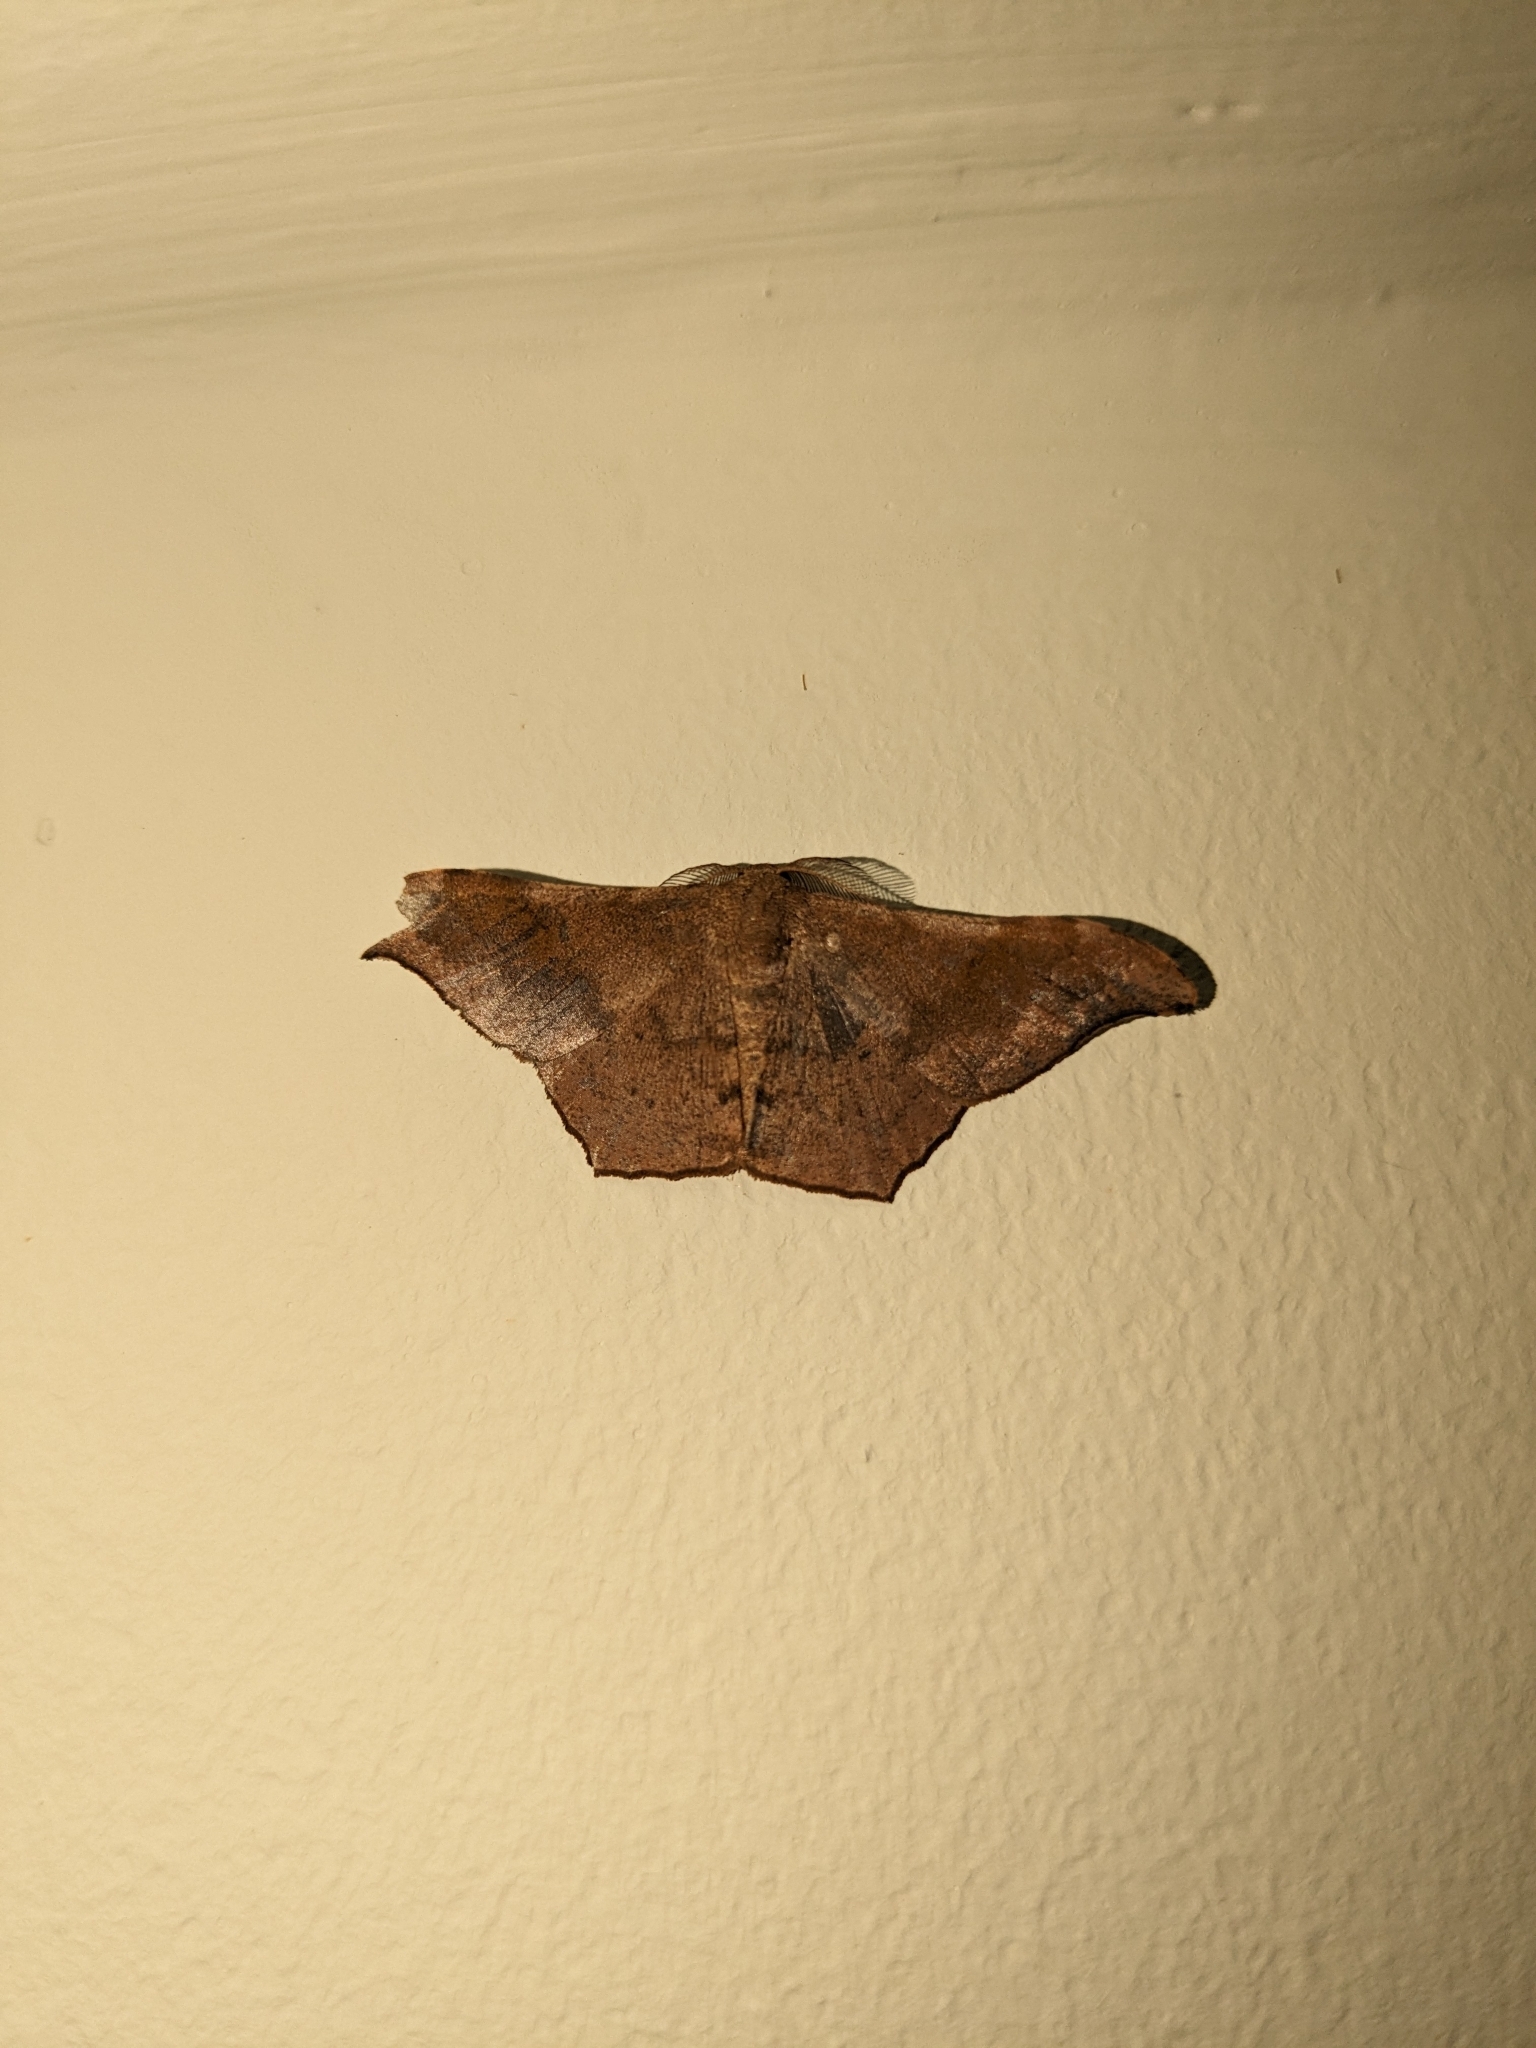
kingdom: Animalia
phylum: Arthropoda
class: Insecta
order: Lepidoptera
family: Geometridae
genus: Hyposidra
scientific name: Hyposidra talaca
